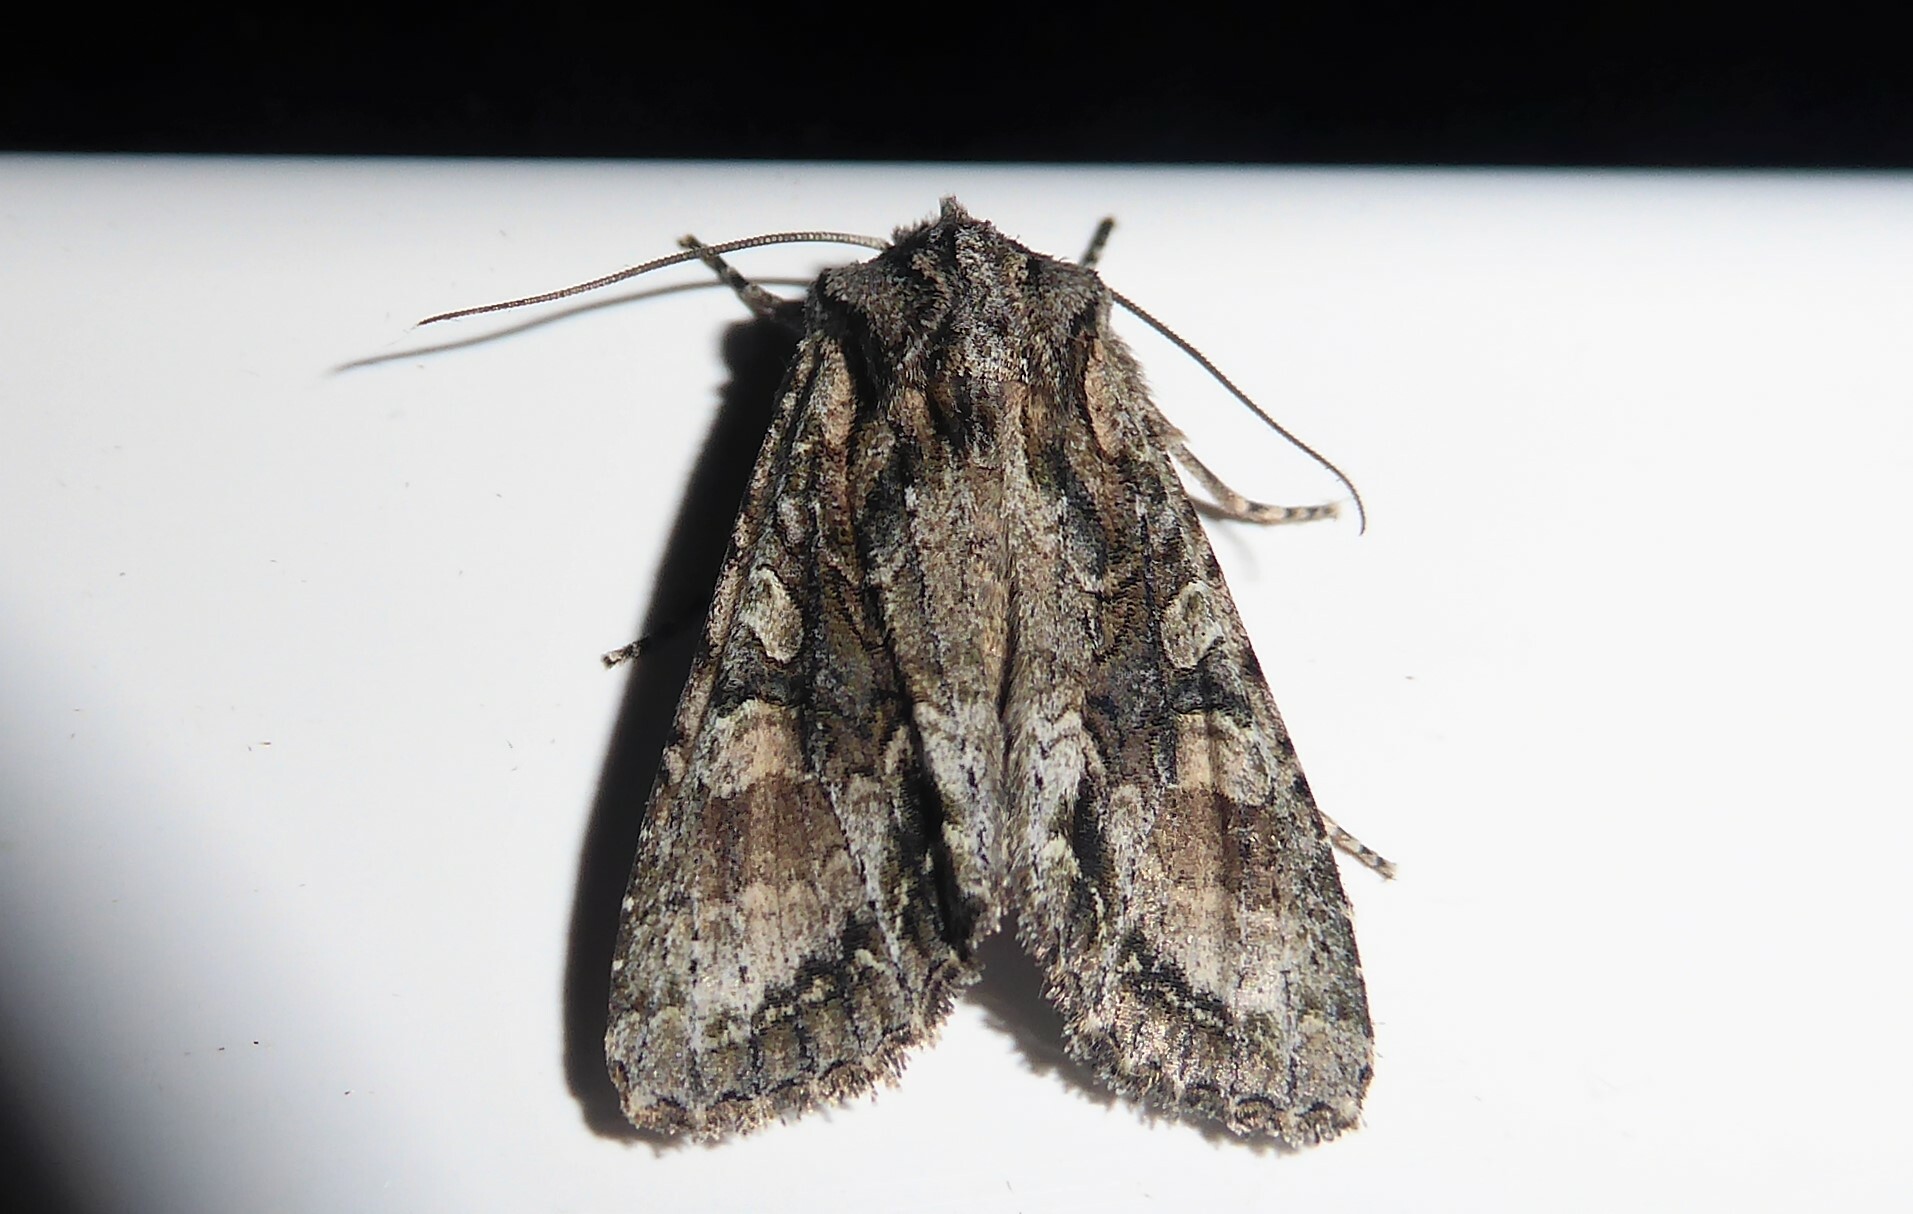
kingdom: Animalia
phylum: Arthropoda
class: Insecta
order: Lepidoptera
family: Noctuidae
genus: Ichneutica
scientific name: Ichneutica mutans
